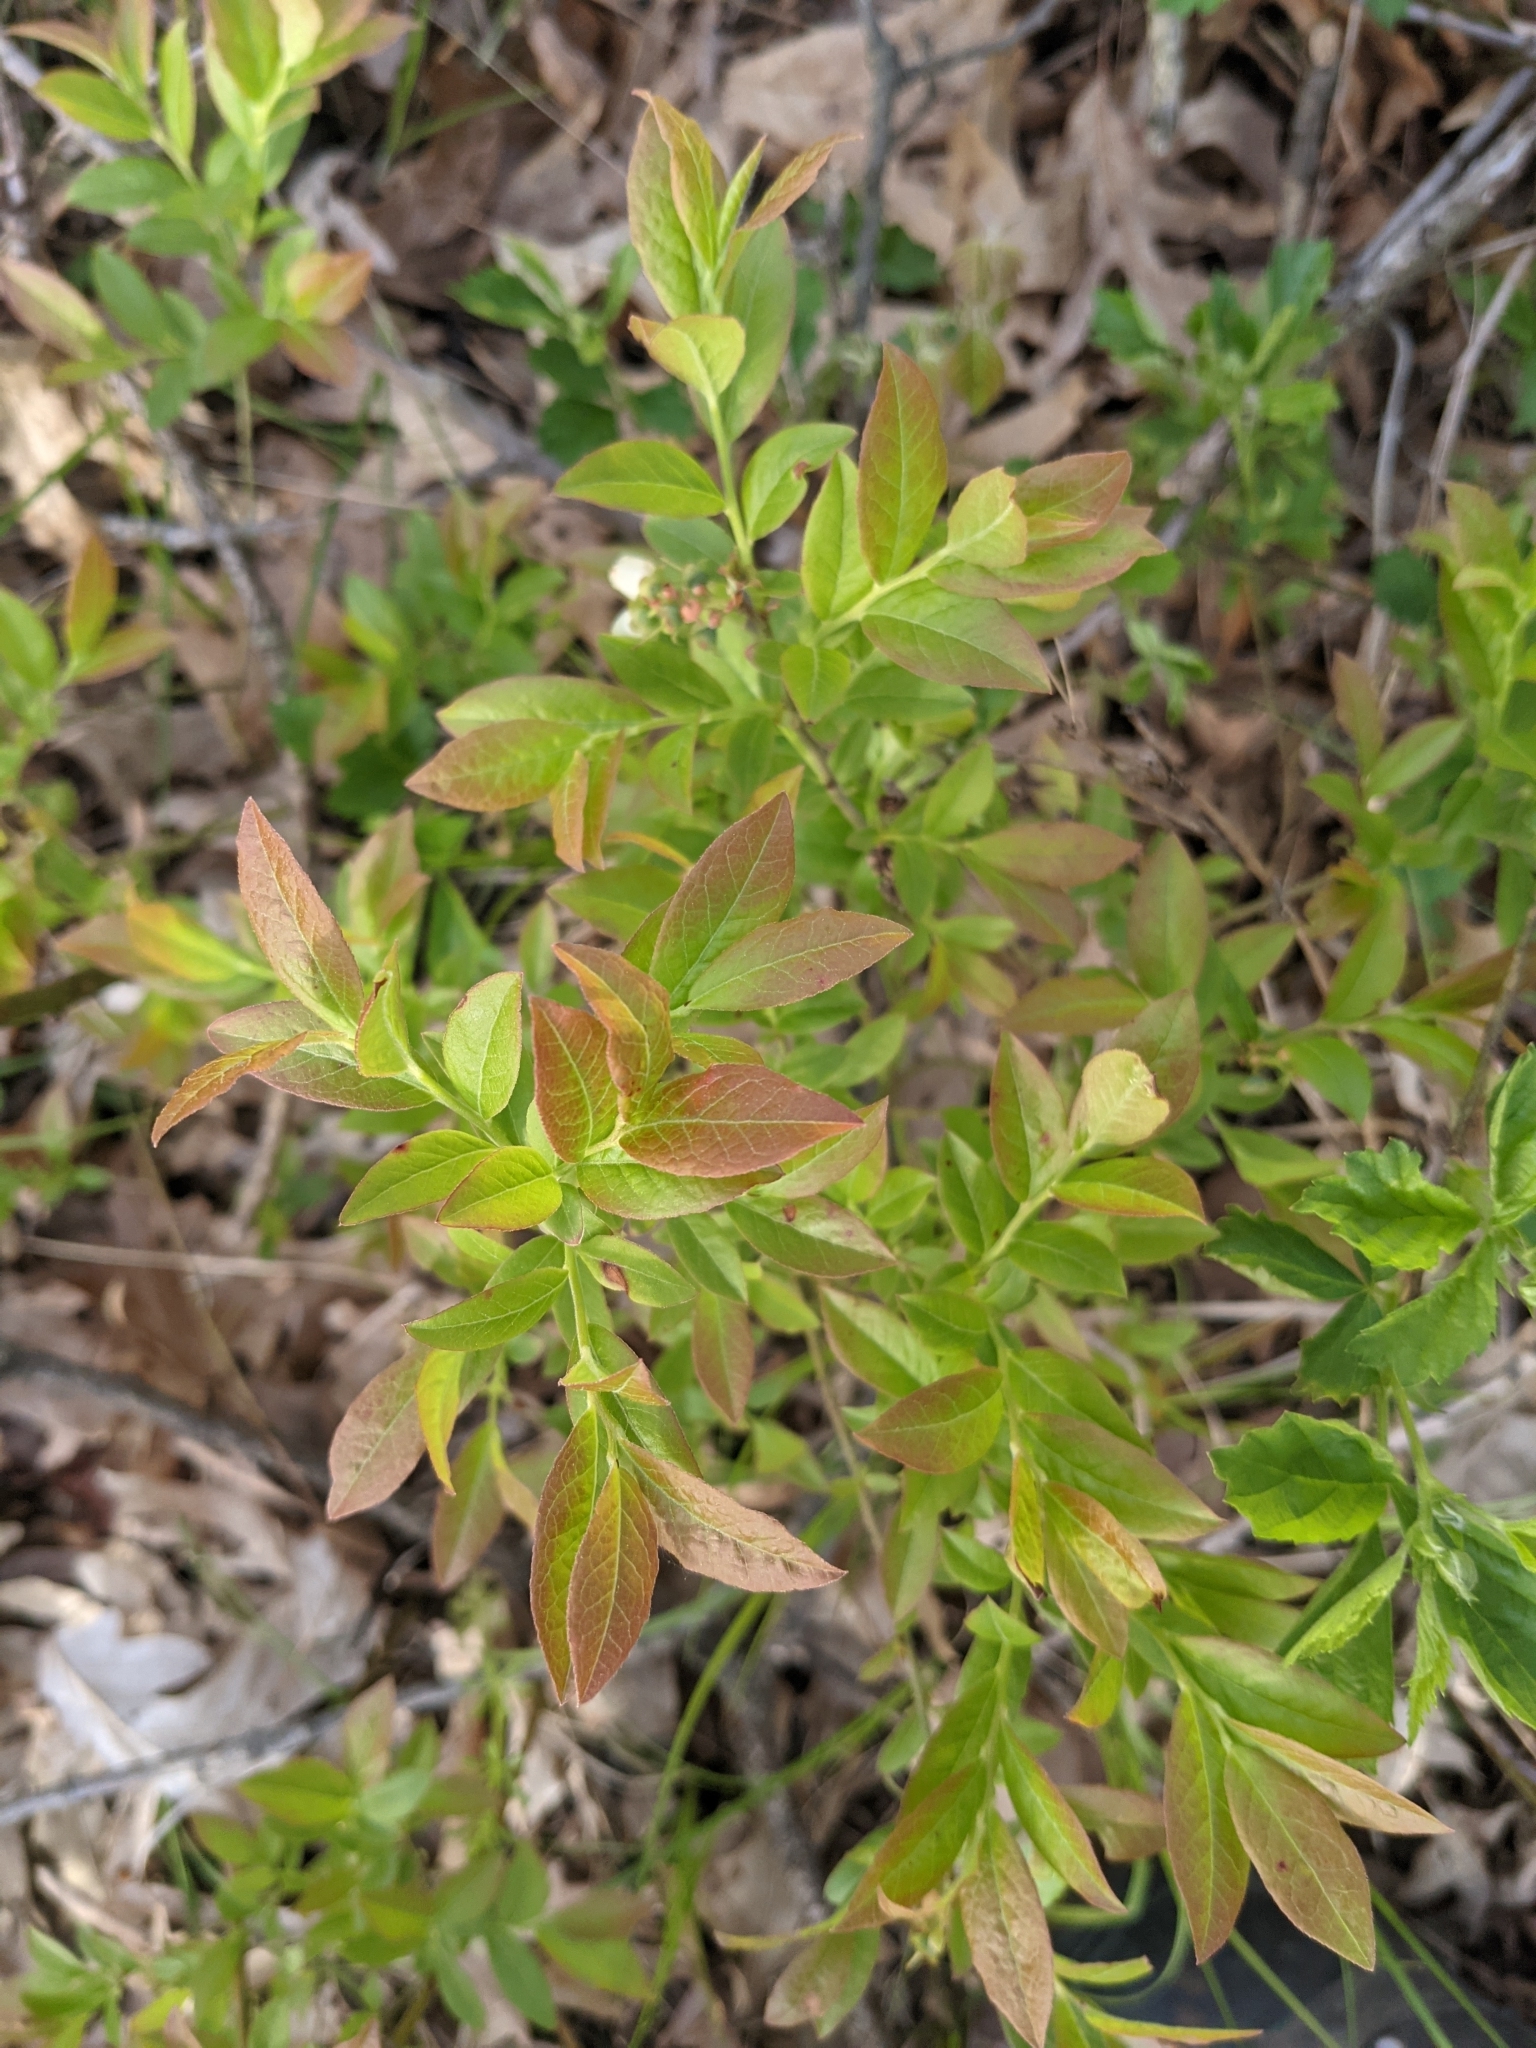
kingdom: Plantae
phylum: Tracheophyta
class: Magnoliopsida
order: Ericales
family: Ericaceae
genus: Vaccinium
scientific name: Vaccinium angustifolium
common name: Early lowbush blueberry
